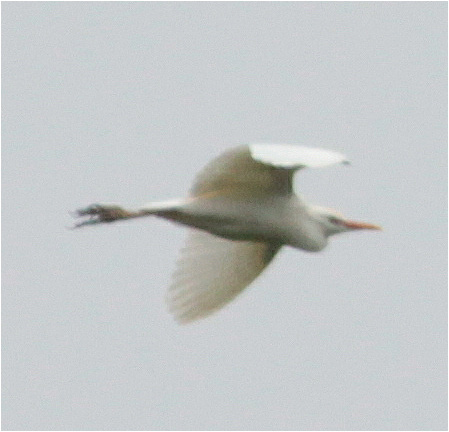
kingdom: Animalia
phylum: Chordata
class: Aves
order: Pelecaniformes
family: Ardeidae
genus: Bubulcus
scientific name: Bubulcus ibis
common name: Cattle egret
